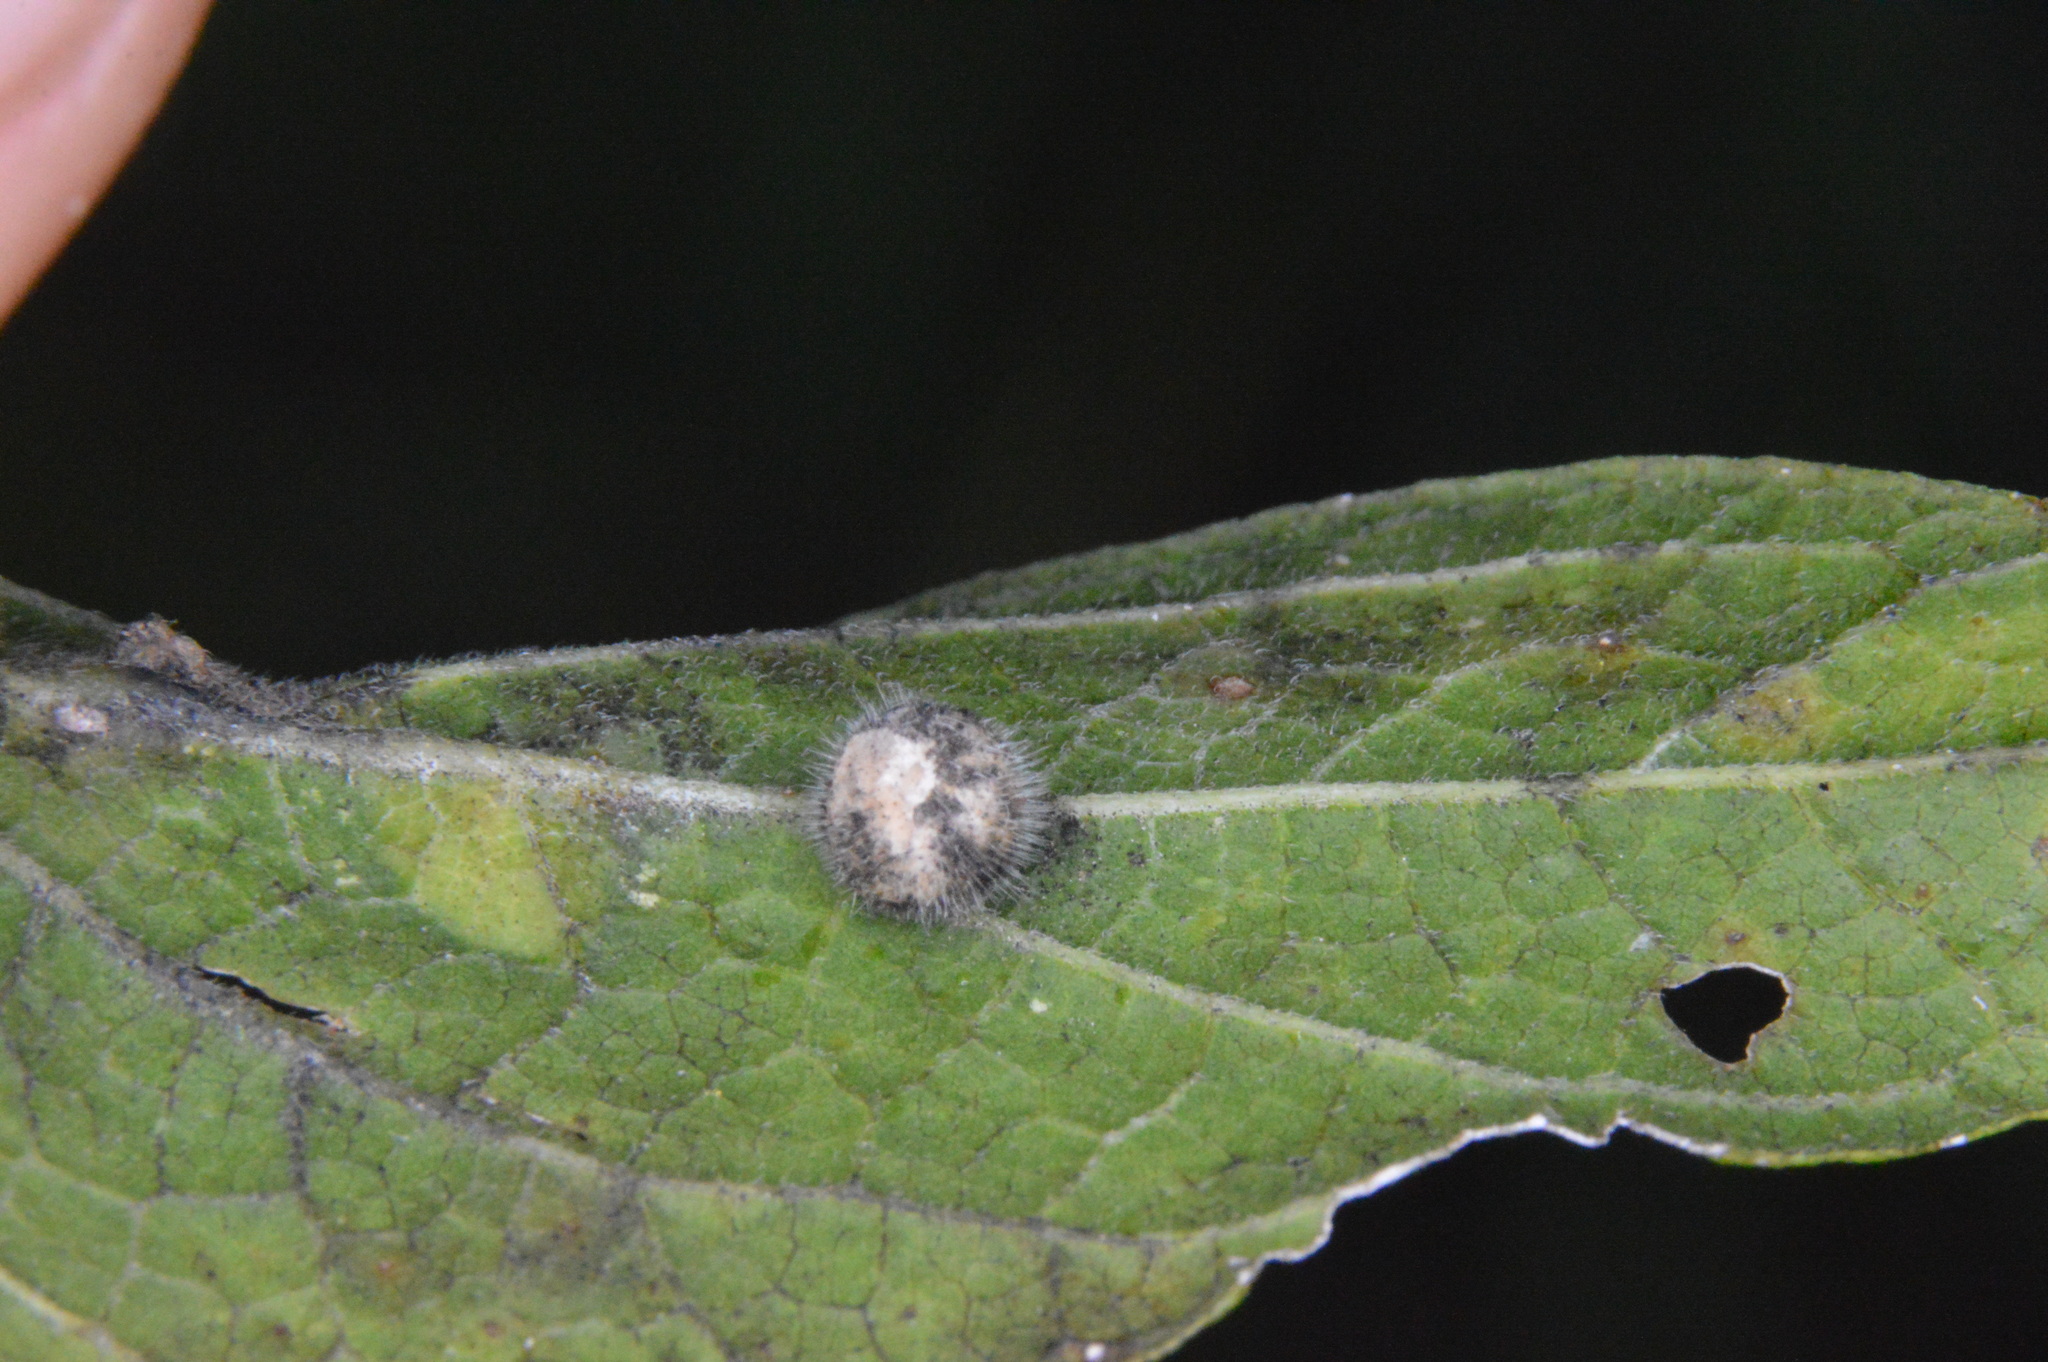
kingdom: Animalia
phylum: Arthropoda
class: Insecta
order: Diptera
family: Cecidomyiidae
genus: Celticecis
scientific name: Celticecis pubescens
